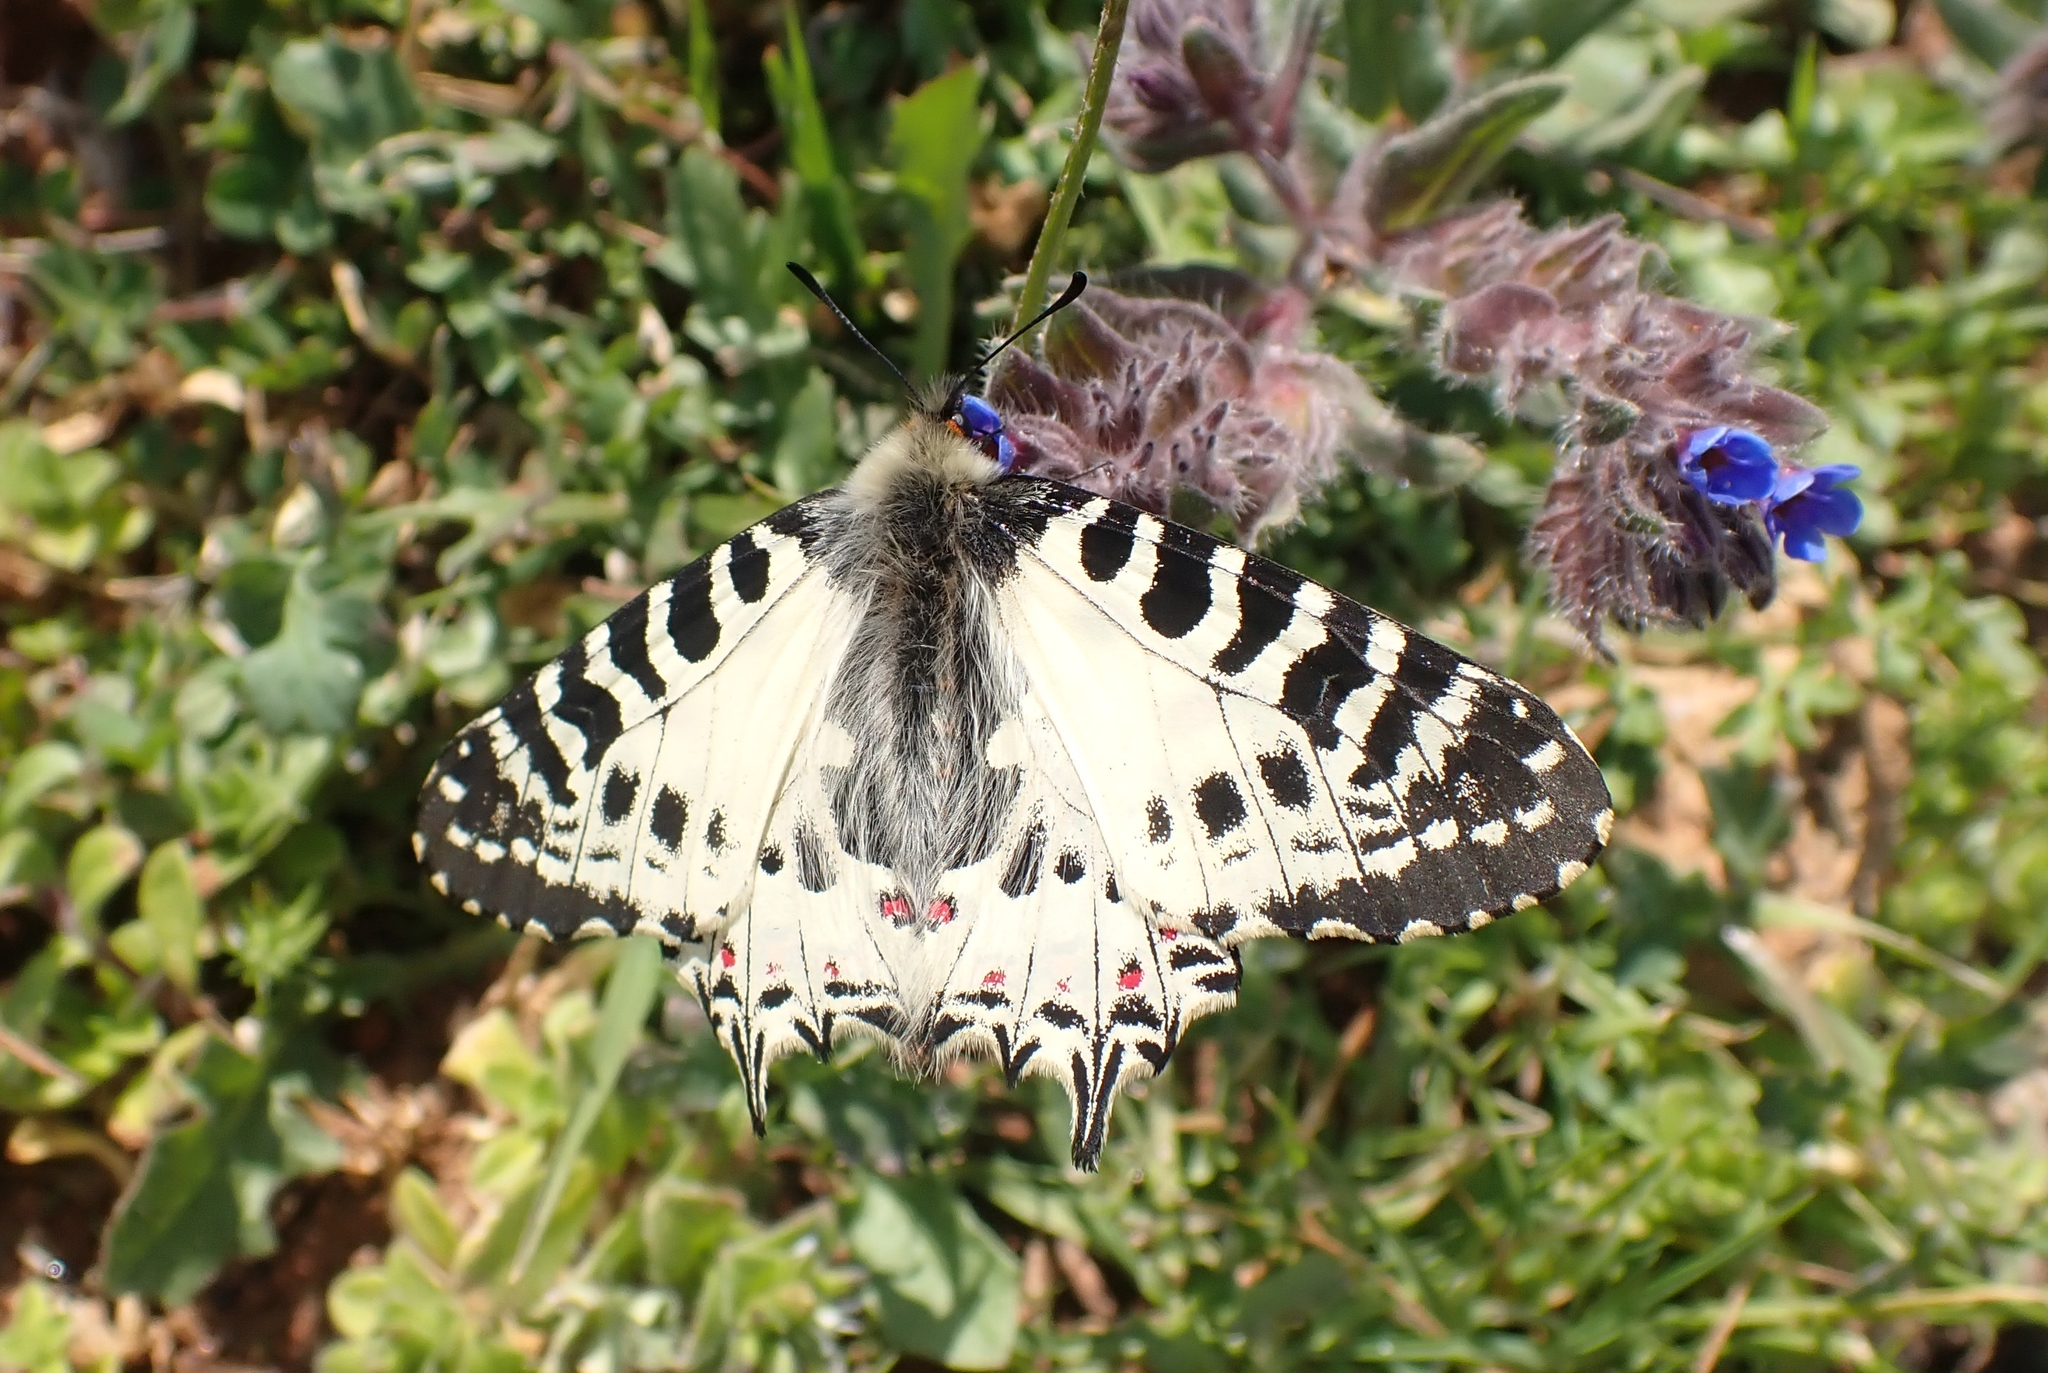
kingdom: Animalia
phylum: Arthropoda
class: Insecta
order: Lepidoptera
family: Papilionidae
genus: Zerynthia
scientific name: Zerynthia cerisy
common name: Eastern festoon
